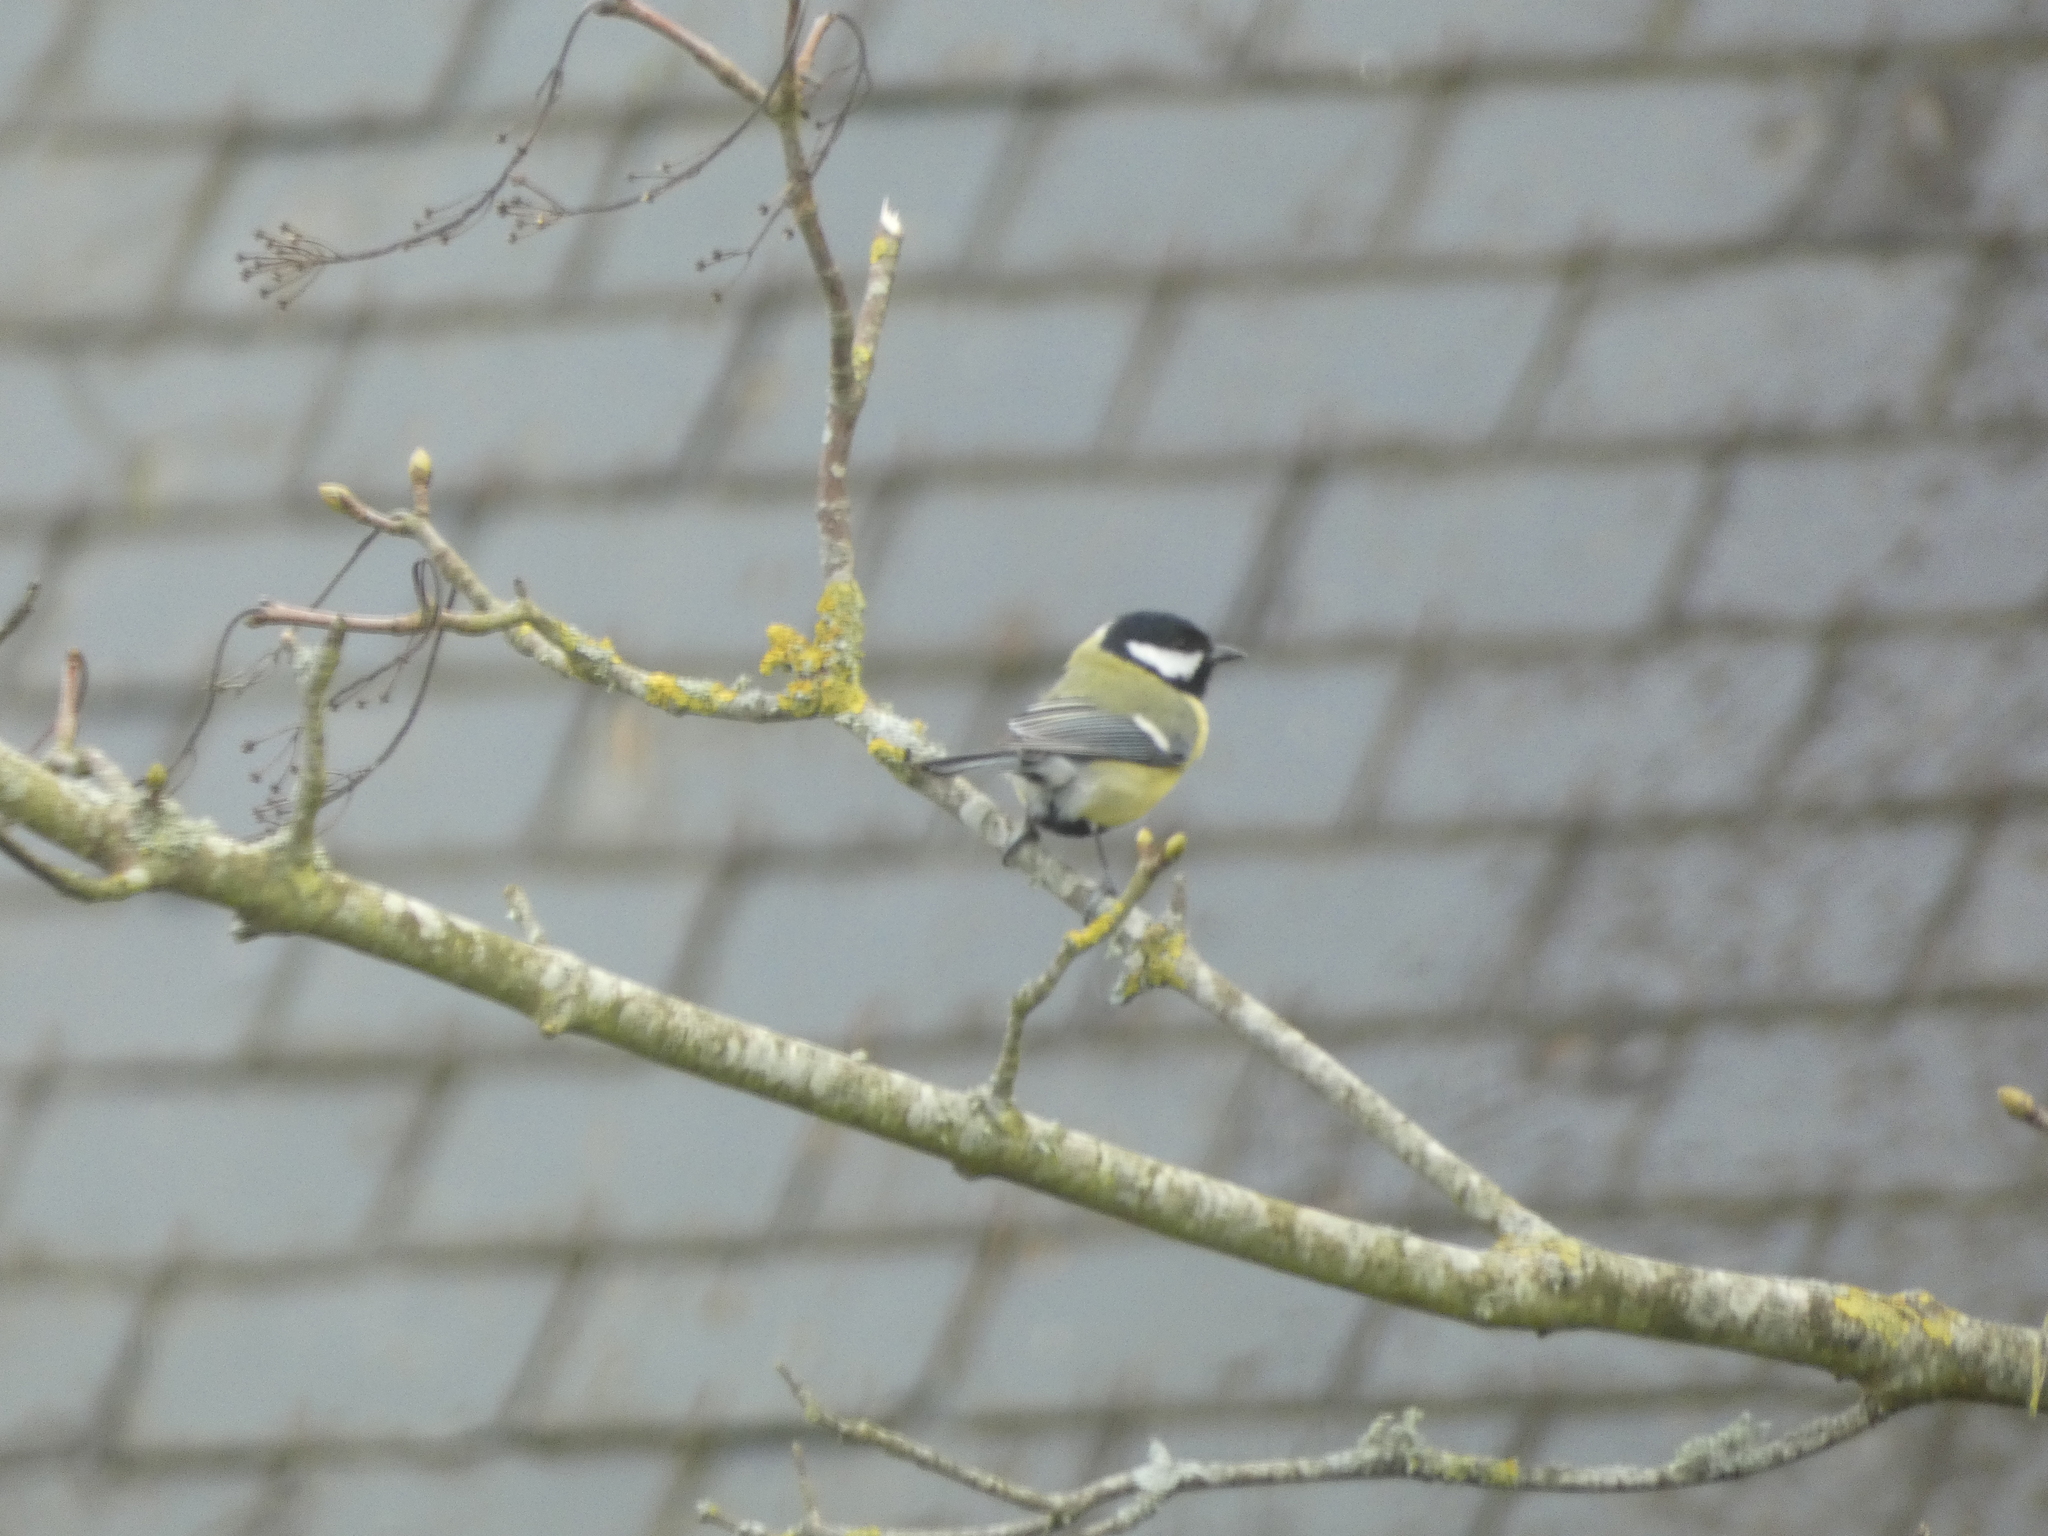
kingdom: Animalia
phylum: Chordata
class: Aves
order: Passeriformes
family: Paridae
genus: Parus
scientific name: Parus major
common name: Great tit
